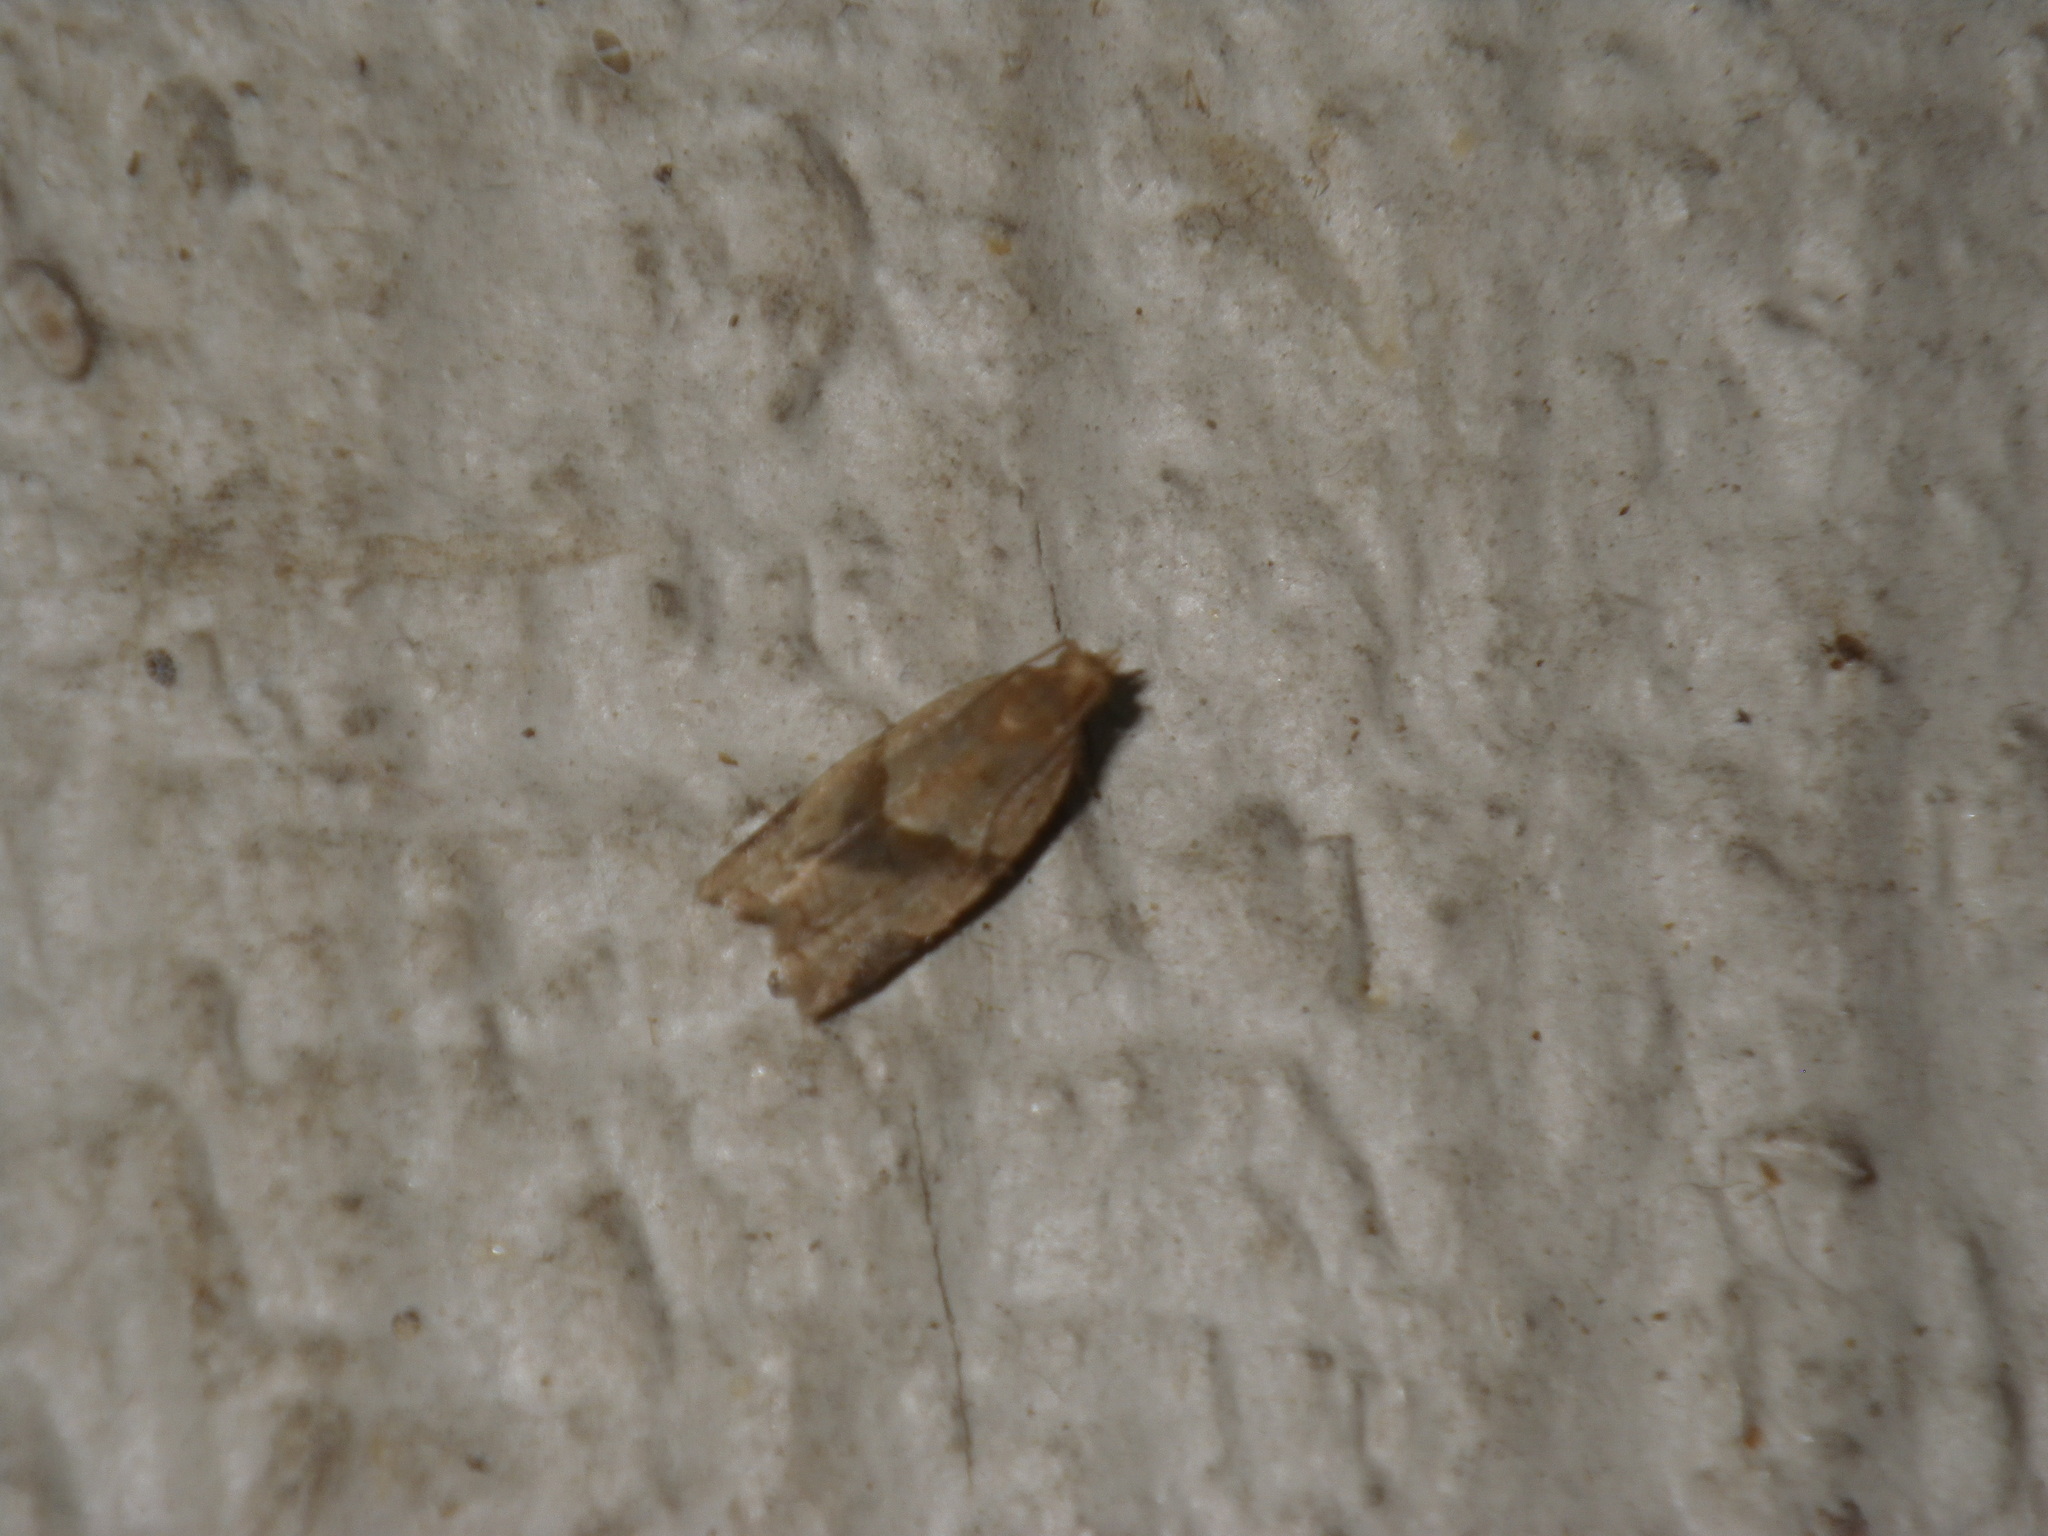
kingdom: Animalia
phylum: Arthropoda
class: Insecta
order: Lepidoptera
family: Tortricidae
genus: Clepsis
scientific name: Clepsis peritana
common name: Garden tortrix
